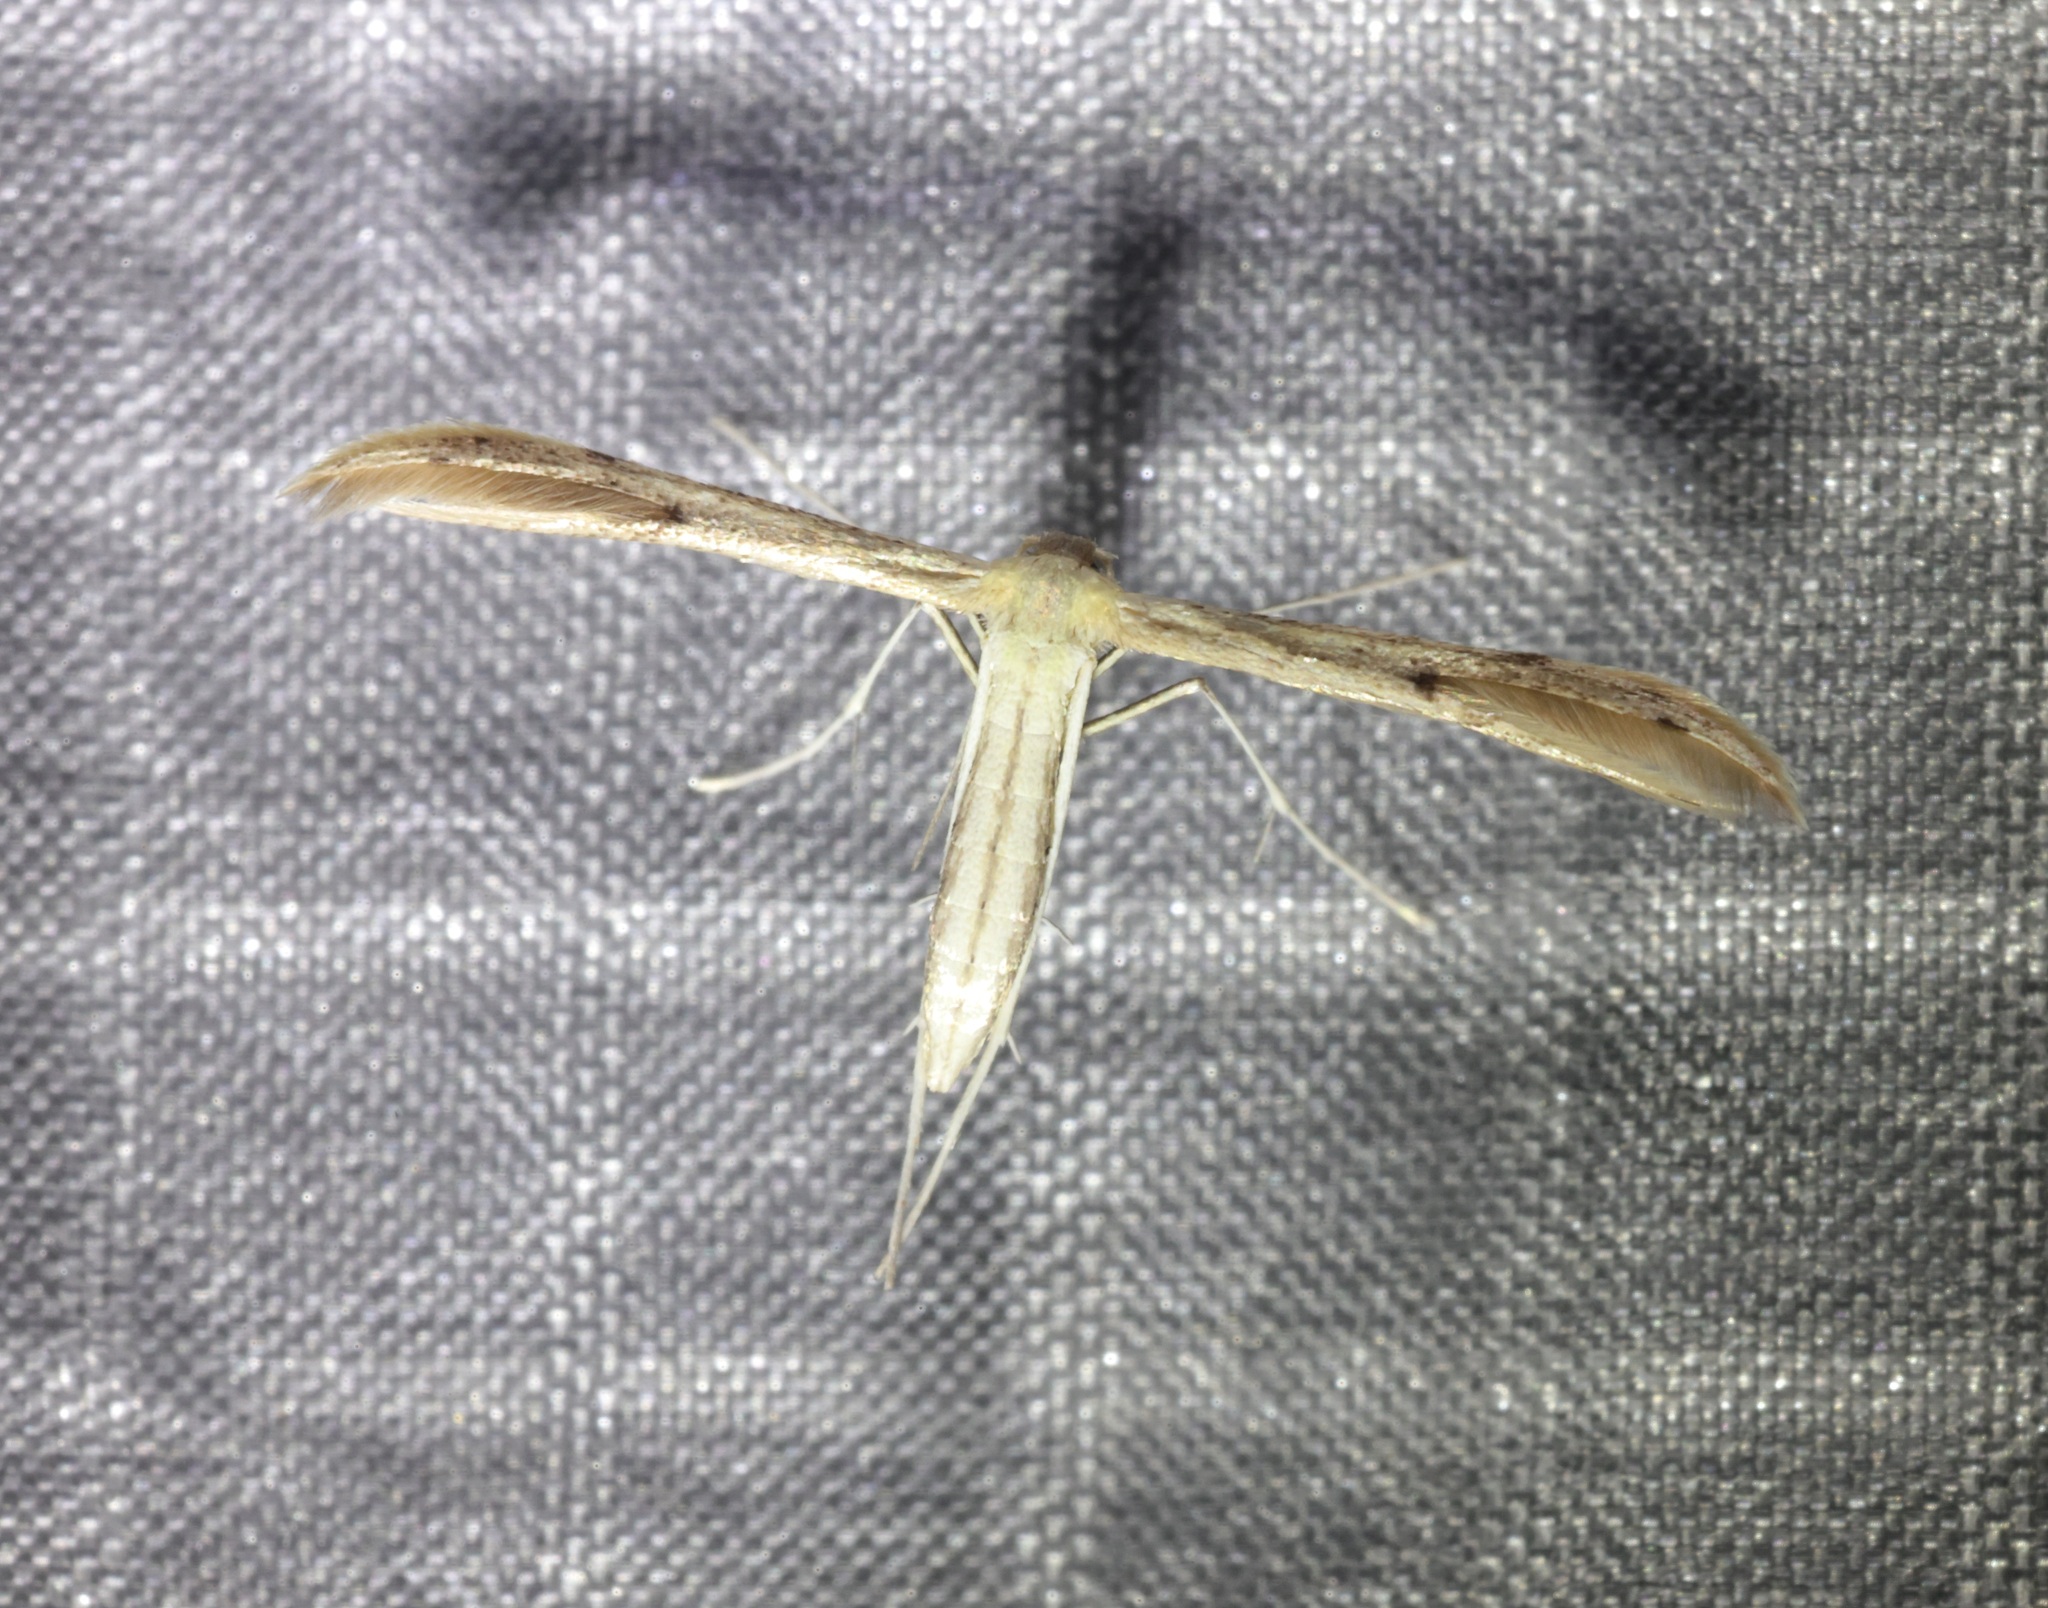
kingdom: Animalia
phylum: Arthropoda
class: Insecta
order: Lepidoptera
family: Pterophoridae
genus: Adaina
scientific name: Adaina microdactyla
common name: Hemp-agrimony plume
